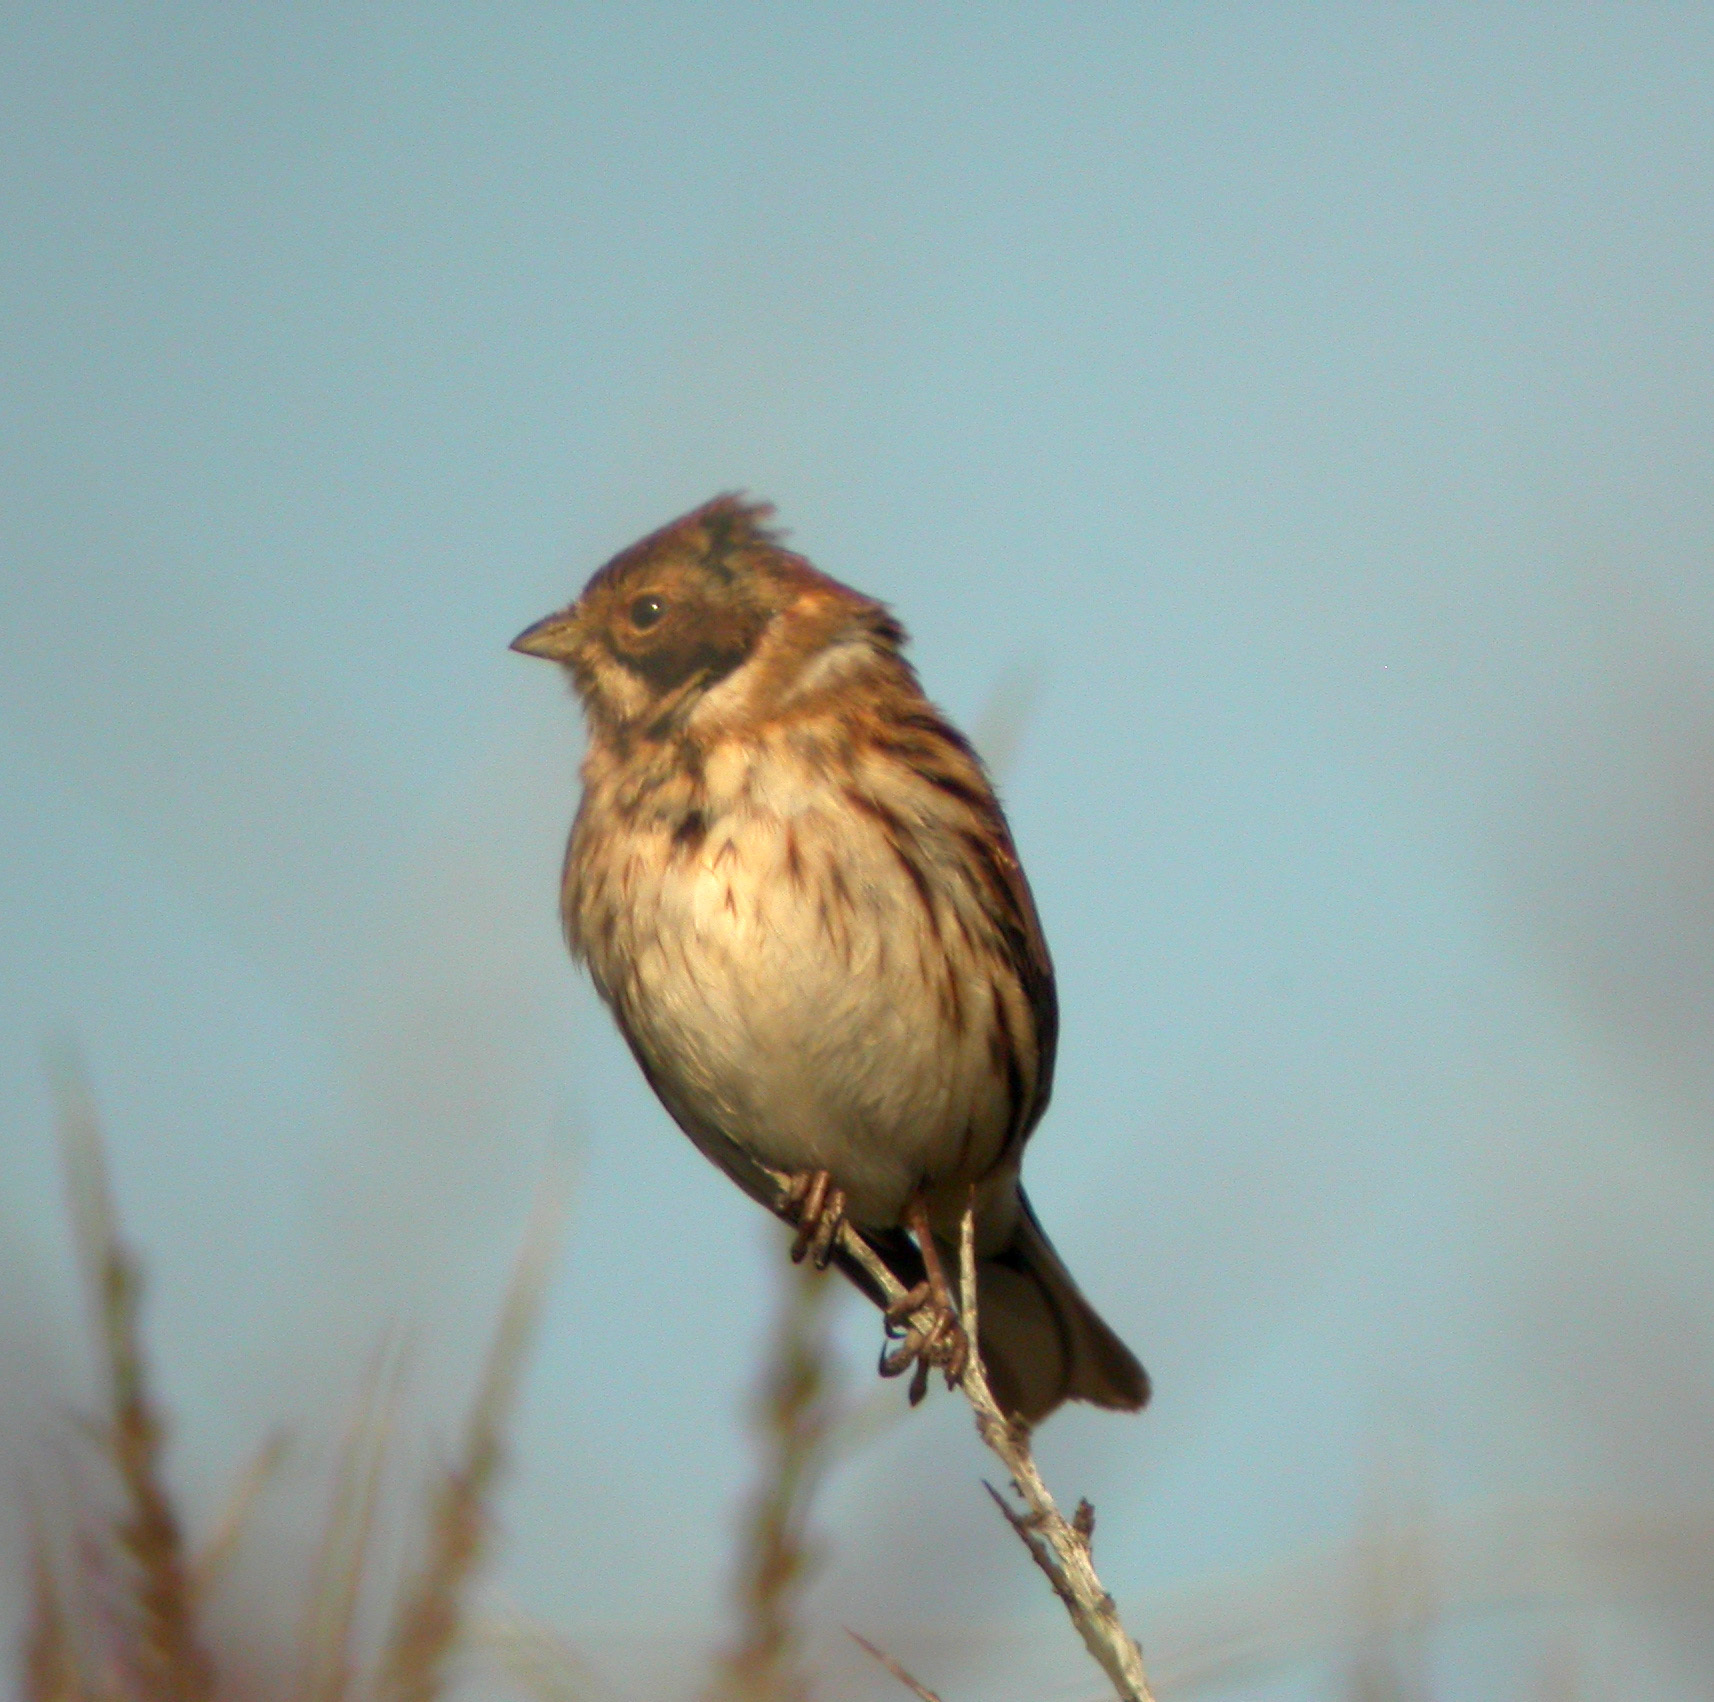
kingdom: Animalia
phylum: Chordata
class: Aves
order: Passeriformes
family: Emberizidae
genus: Emberiza
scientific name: Emberiza schoeniclus
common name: Reed bunting
